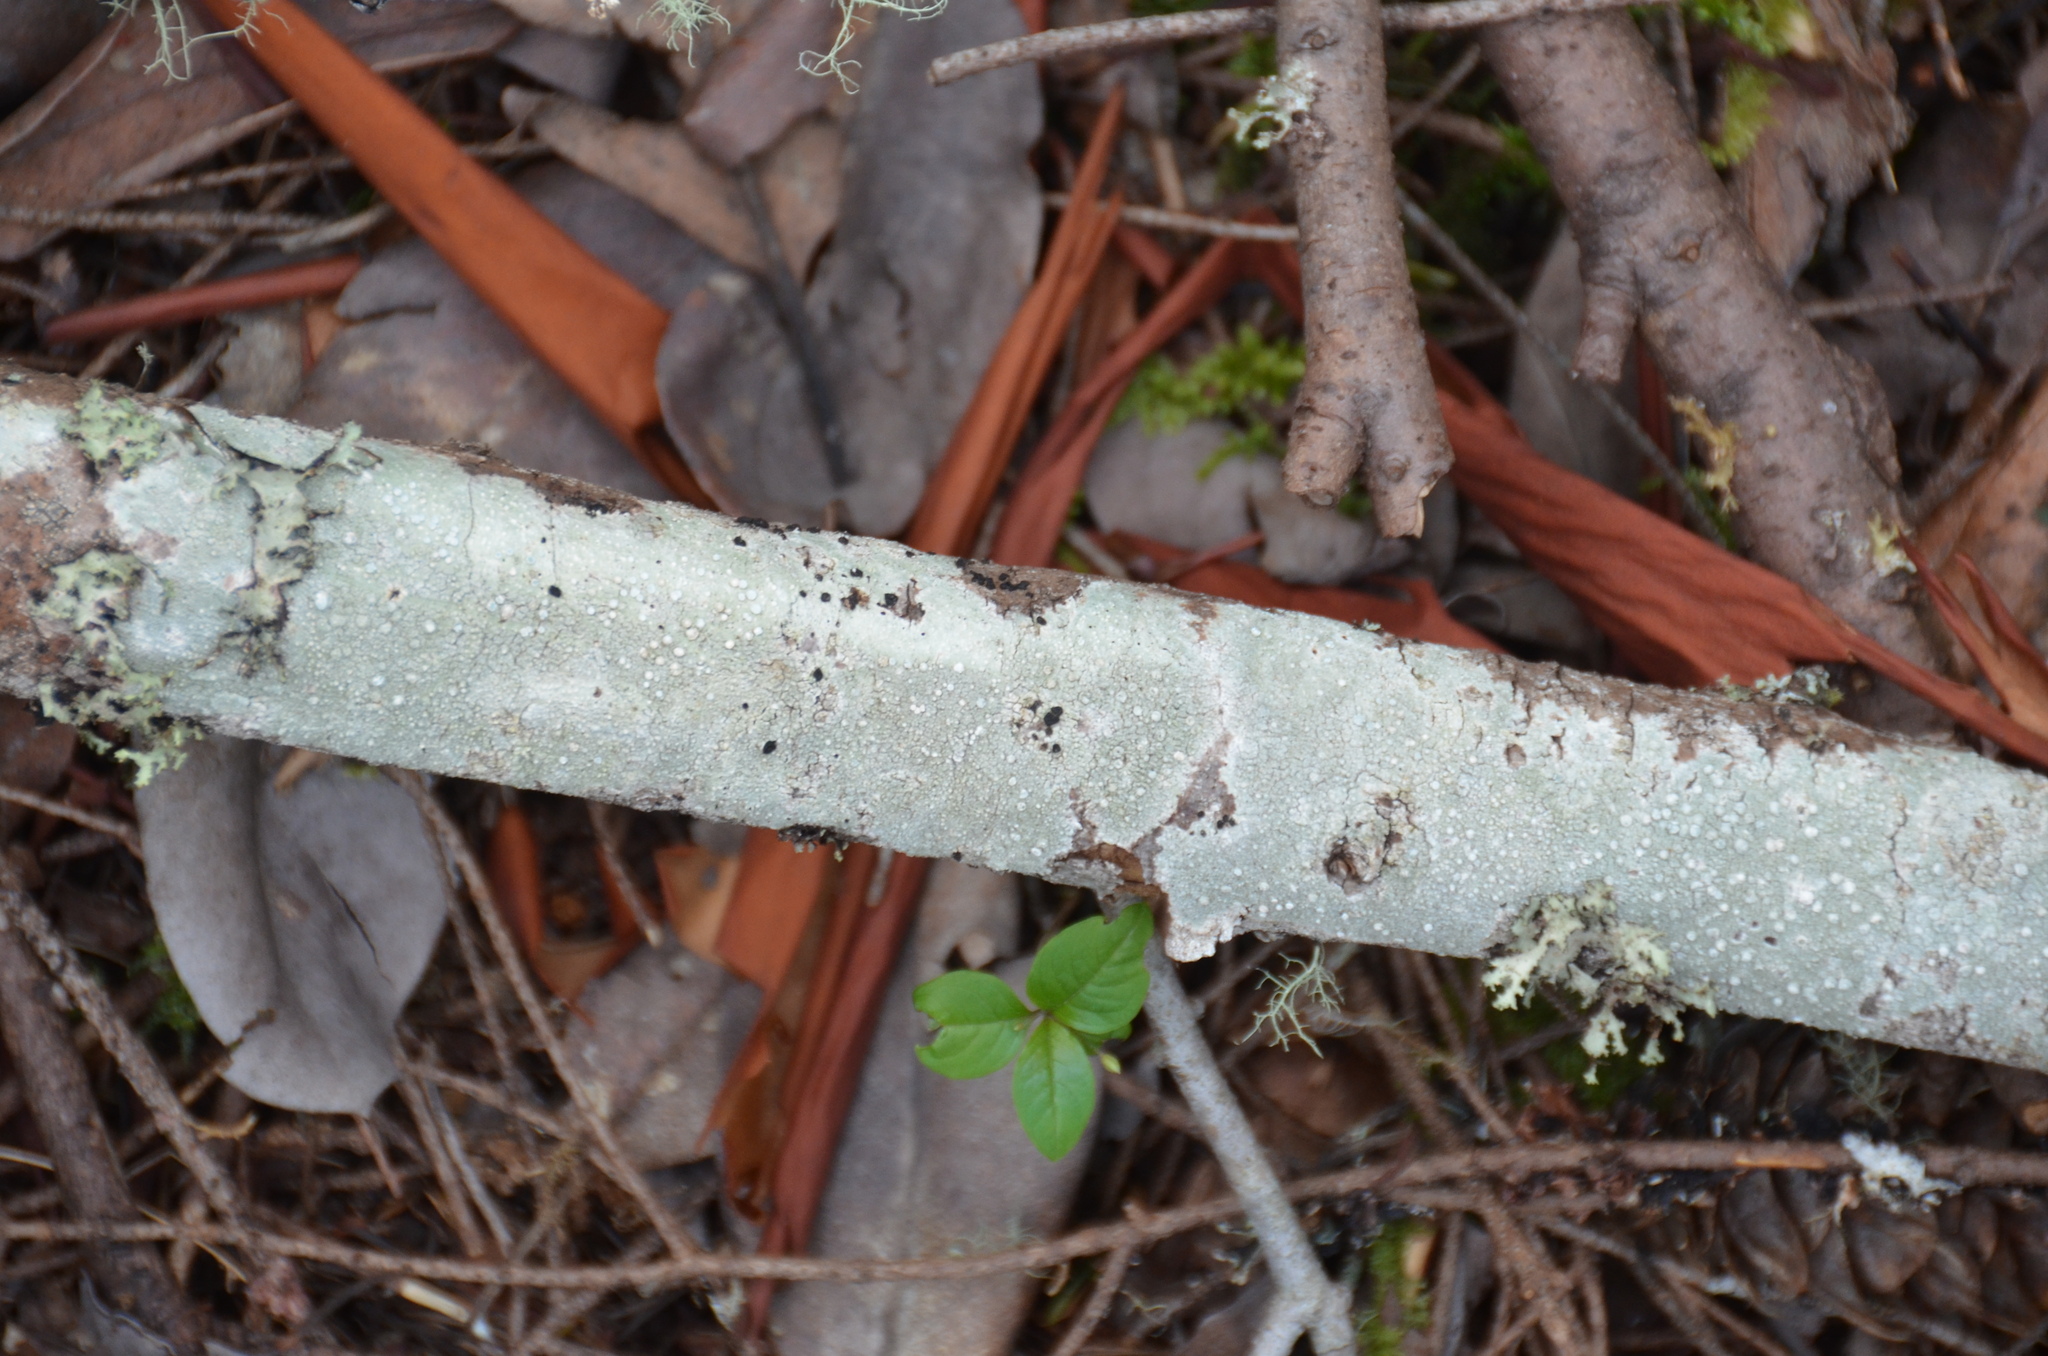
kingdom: Plantae
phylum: Tracheophyta
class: Magnoliopsida
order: Ericales
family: Primulaceae
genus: Lysimachia
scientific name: Lysimachia latifolia
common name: Pacific starflower
